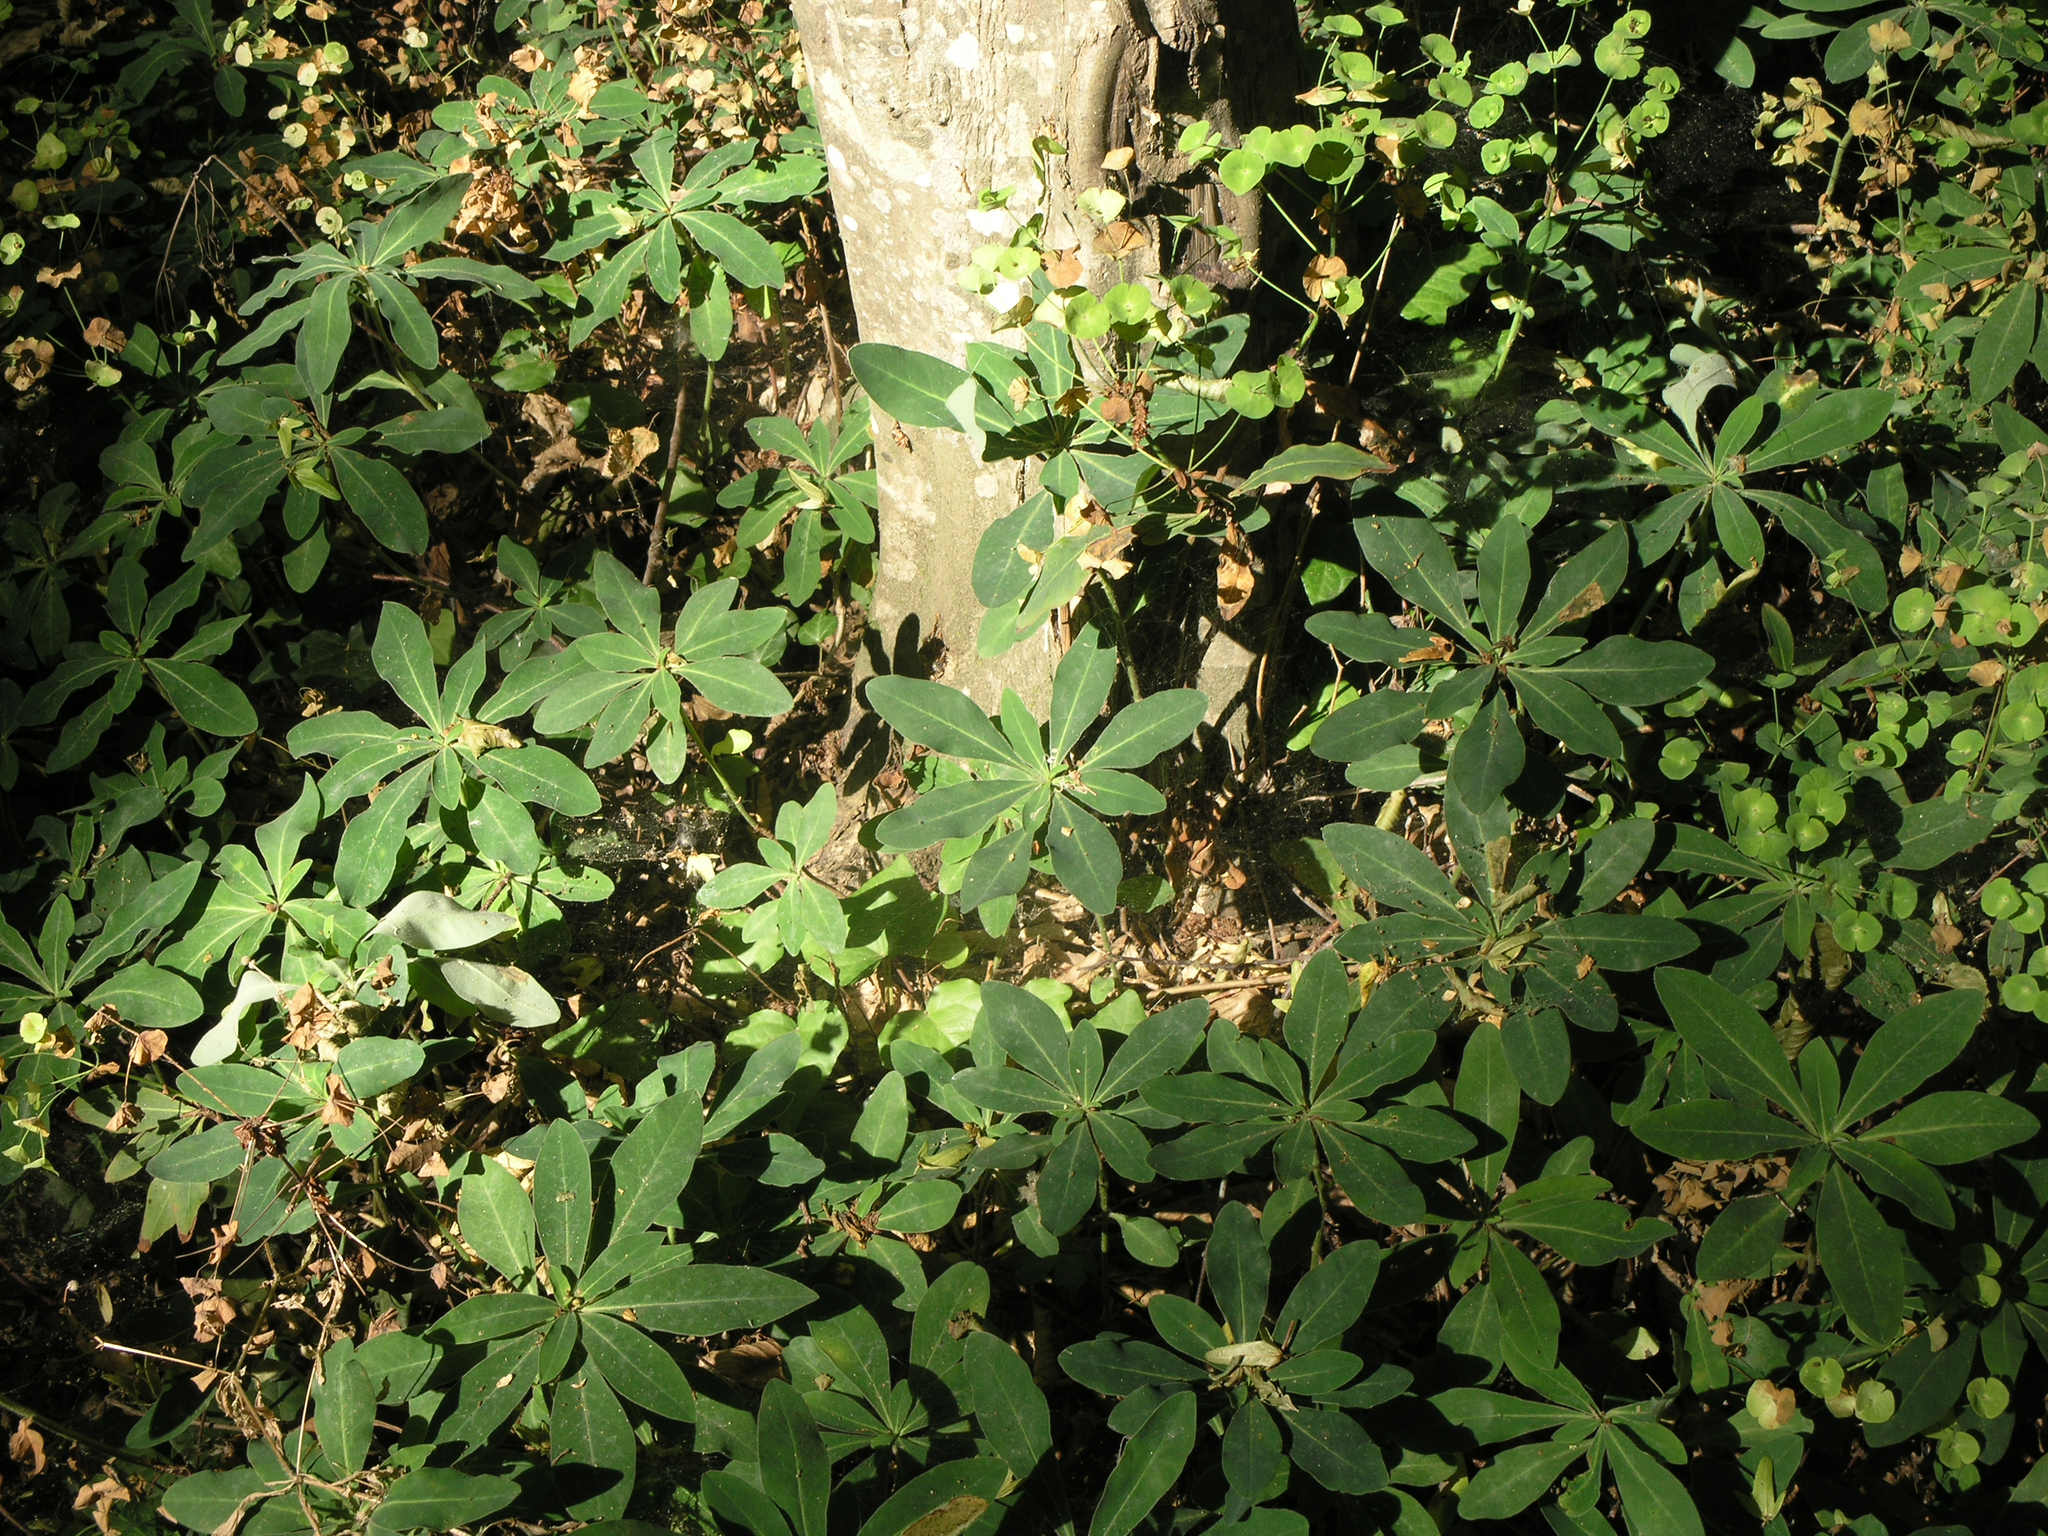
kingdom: Plantae
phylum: Tracheophyta
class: Magnoliopsida
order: Malpighiales
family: Euphorbiaceae
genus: Euphorbia
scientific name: Euphorbia amygdaloides
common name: Wood spurge
